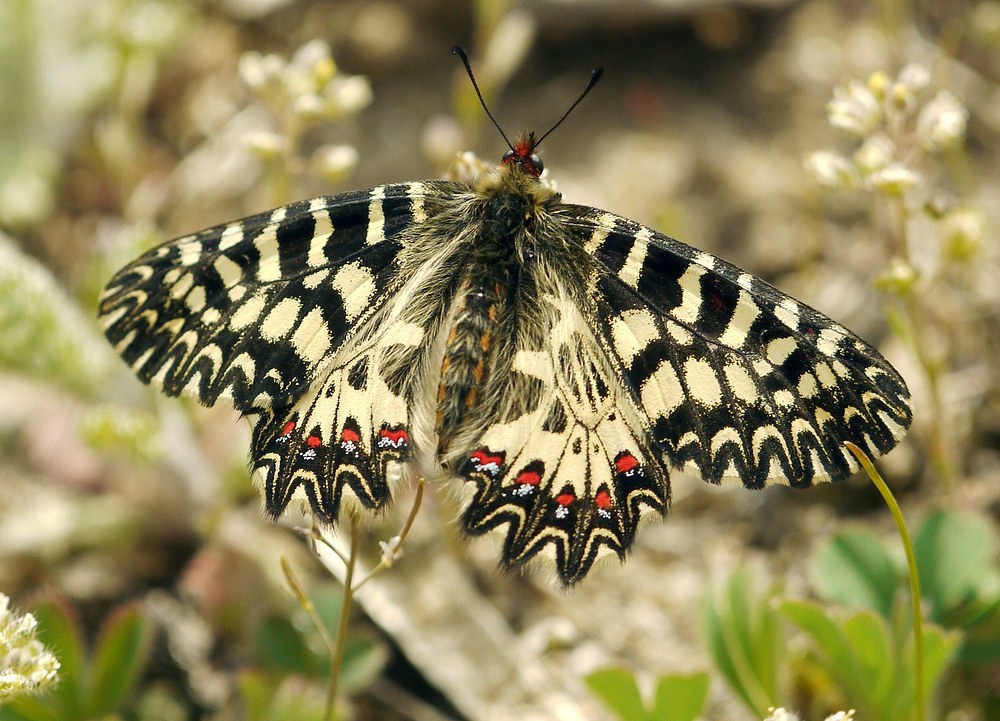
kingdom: Animalia
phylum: Arthropoda
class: Insecta
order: Lepidoptera
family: Papilionidae
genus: Zerynthia
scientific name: Zerynthia polyxena
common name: Southern festoon
